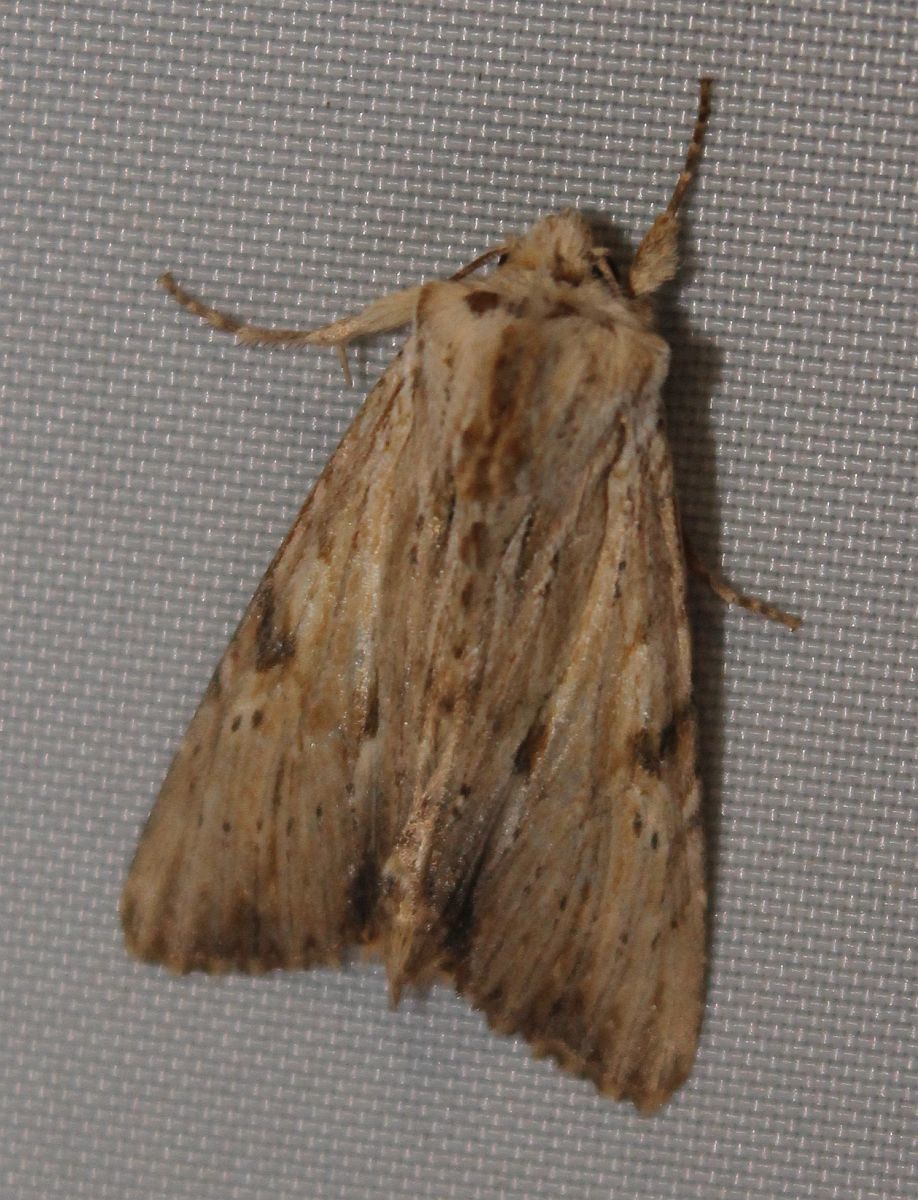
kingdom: Animalia
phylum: Arthropoda
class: Insecta
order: Lepidoptera
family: Noctuidae
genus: Apamea
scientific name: Apamea lithoxylaea
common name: Light arches
